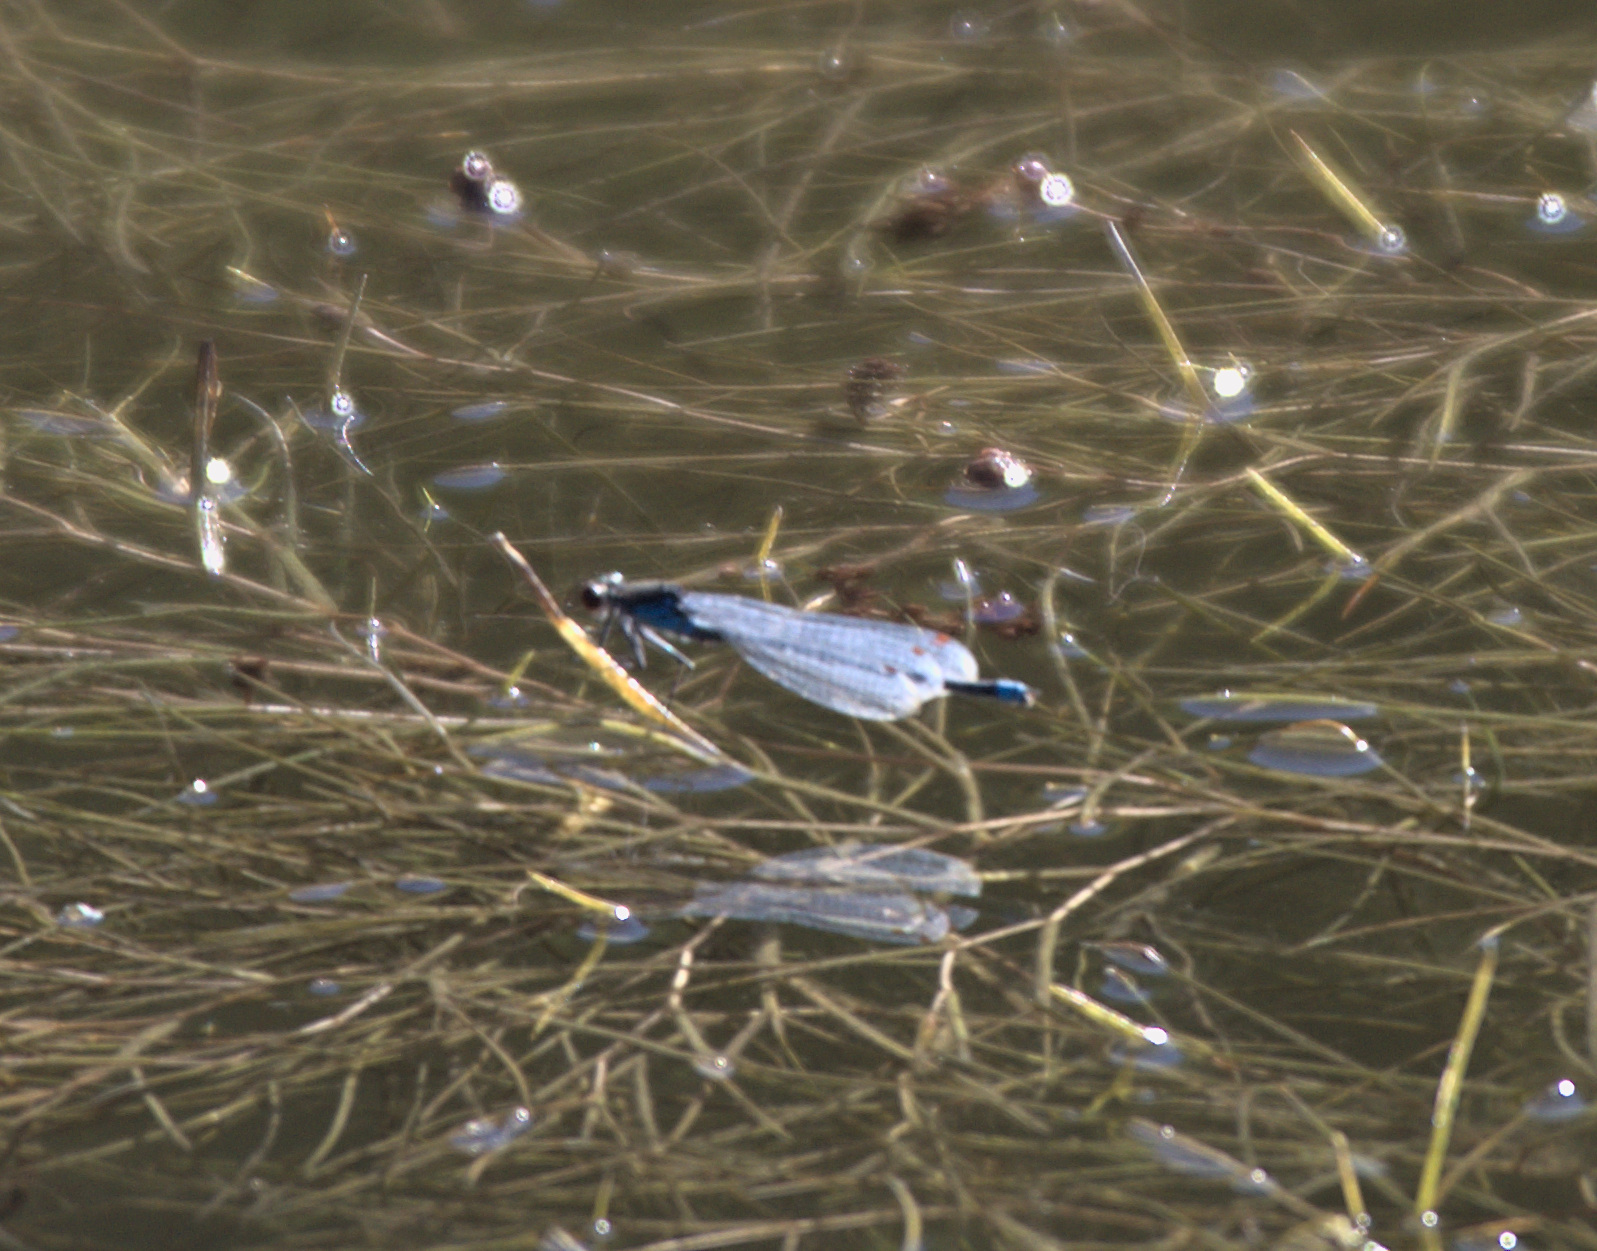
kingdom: Animalia
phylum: Arthropoda
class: Insecta
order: Odonata
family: Coenagrionidae
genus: Erythromma
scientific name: Erythromma najas
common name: Red-eyed damselfly
